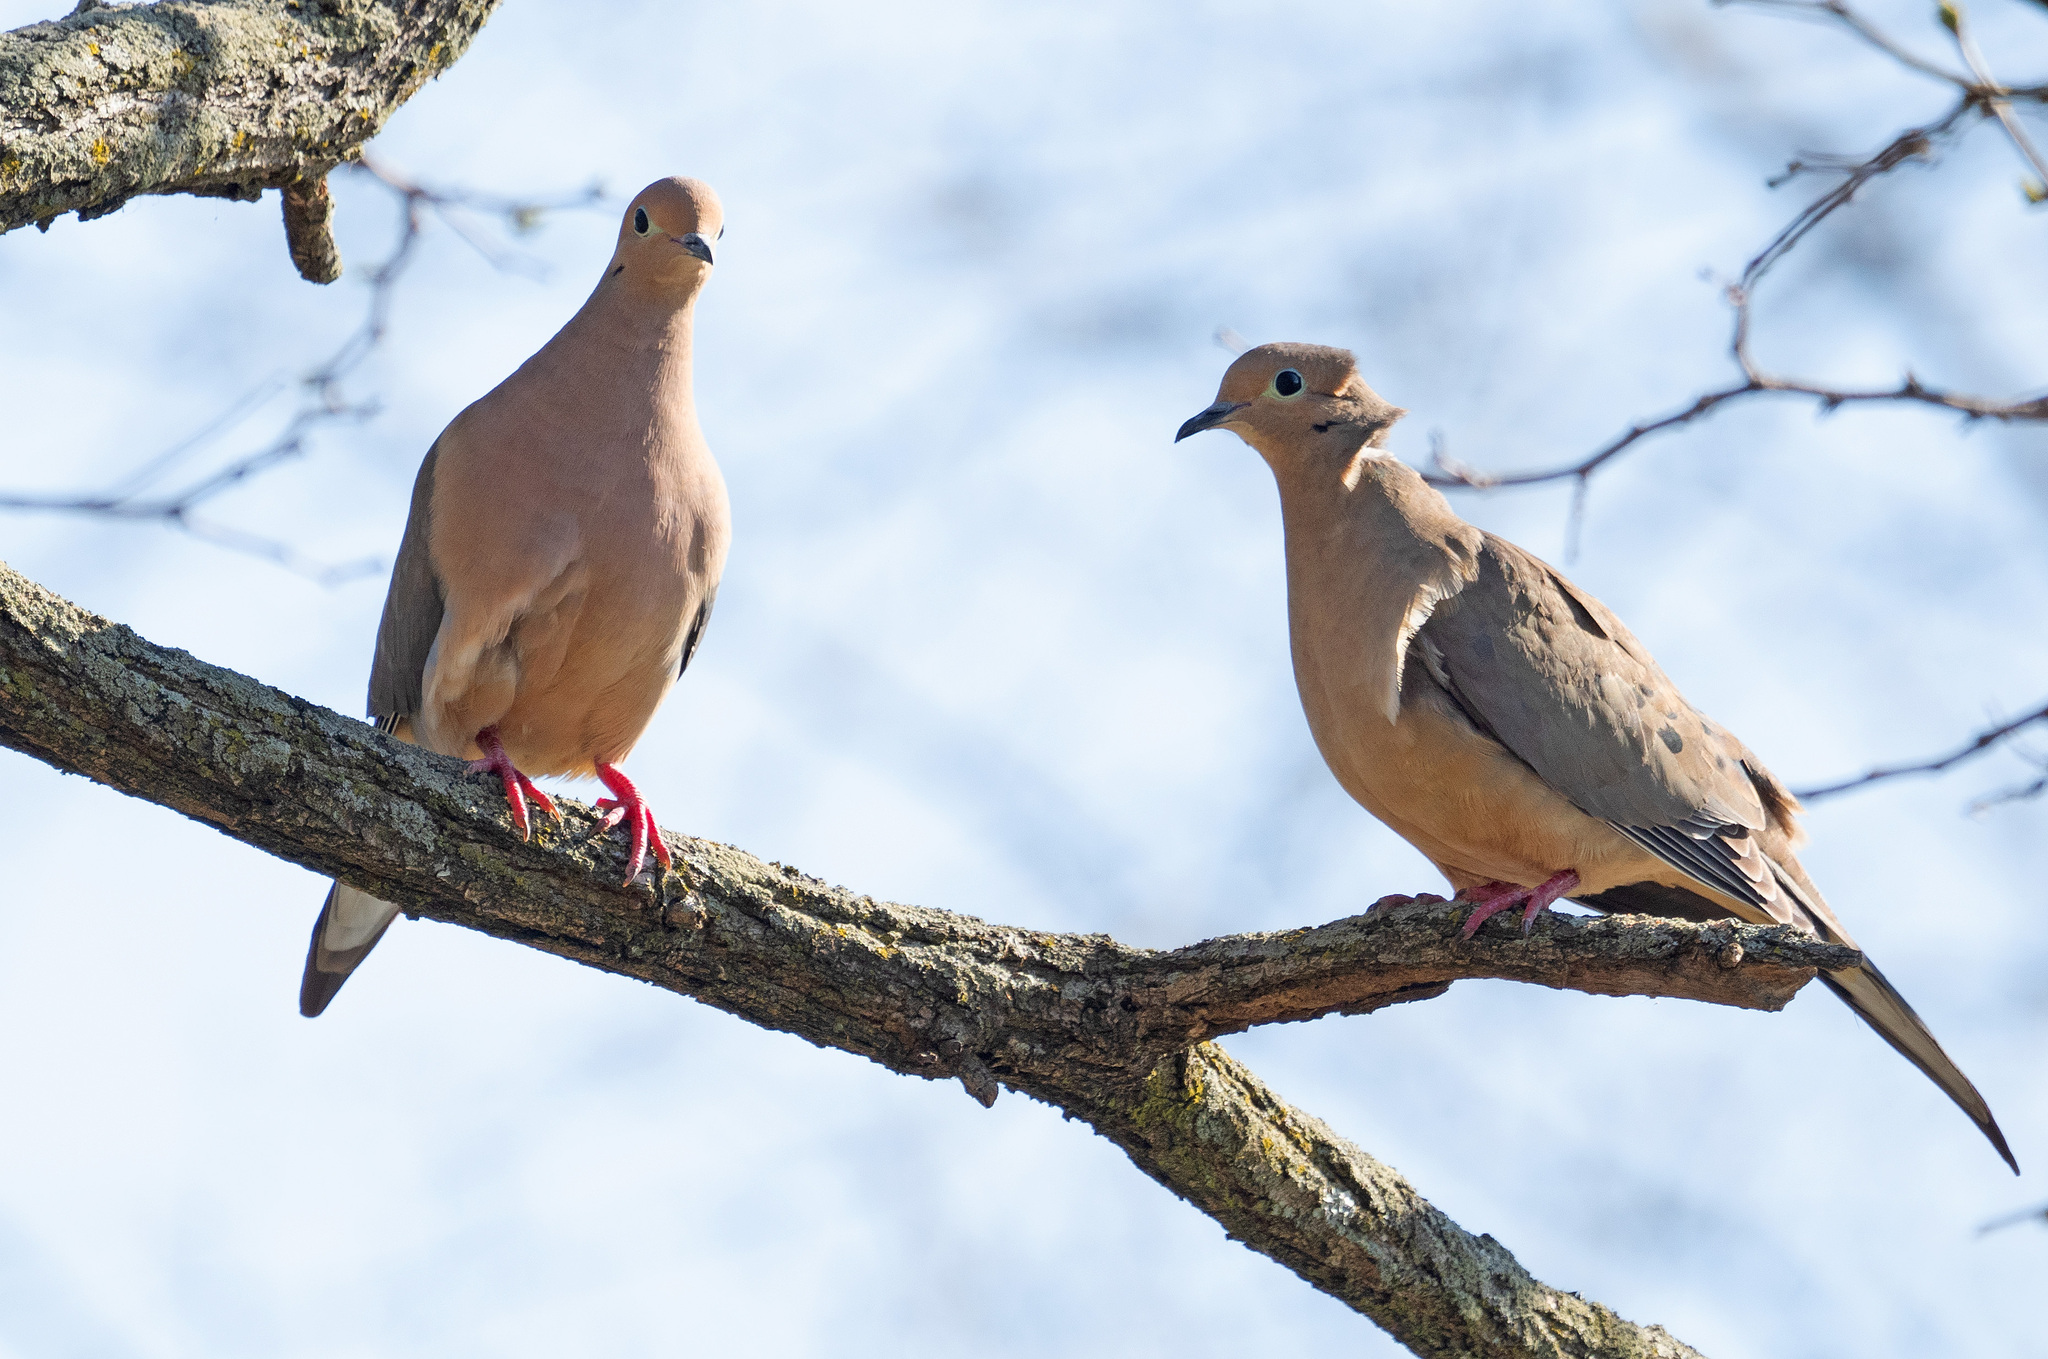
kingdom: Animalia
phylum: Chordata
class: Aves
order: Columbiformes
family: Columbidae
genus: Zenaida
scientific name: Zenaida macroura
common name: Mourning dove
